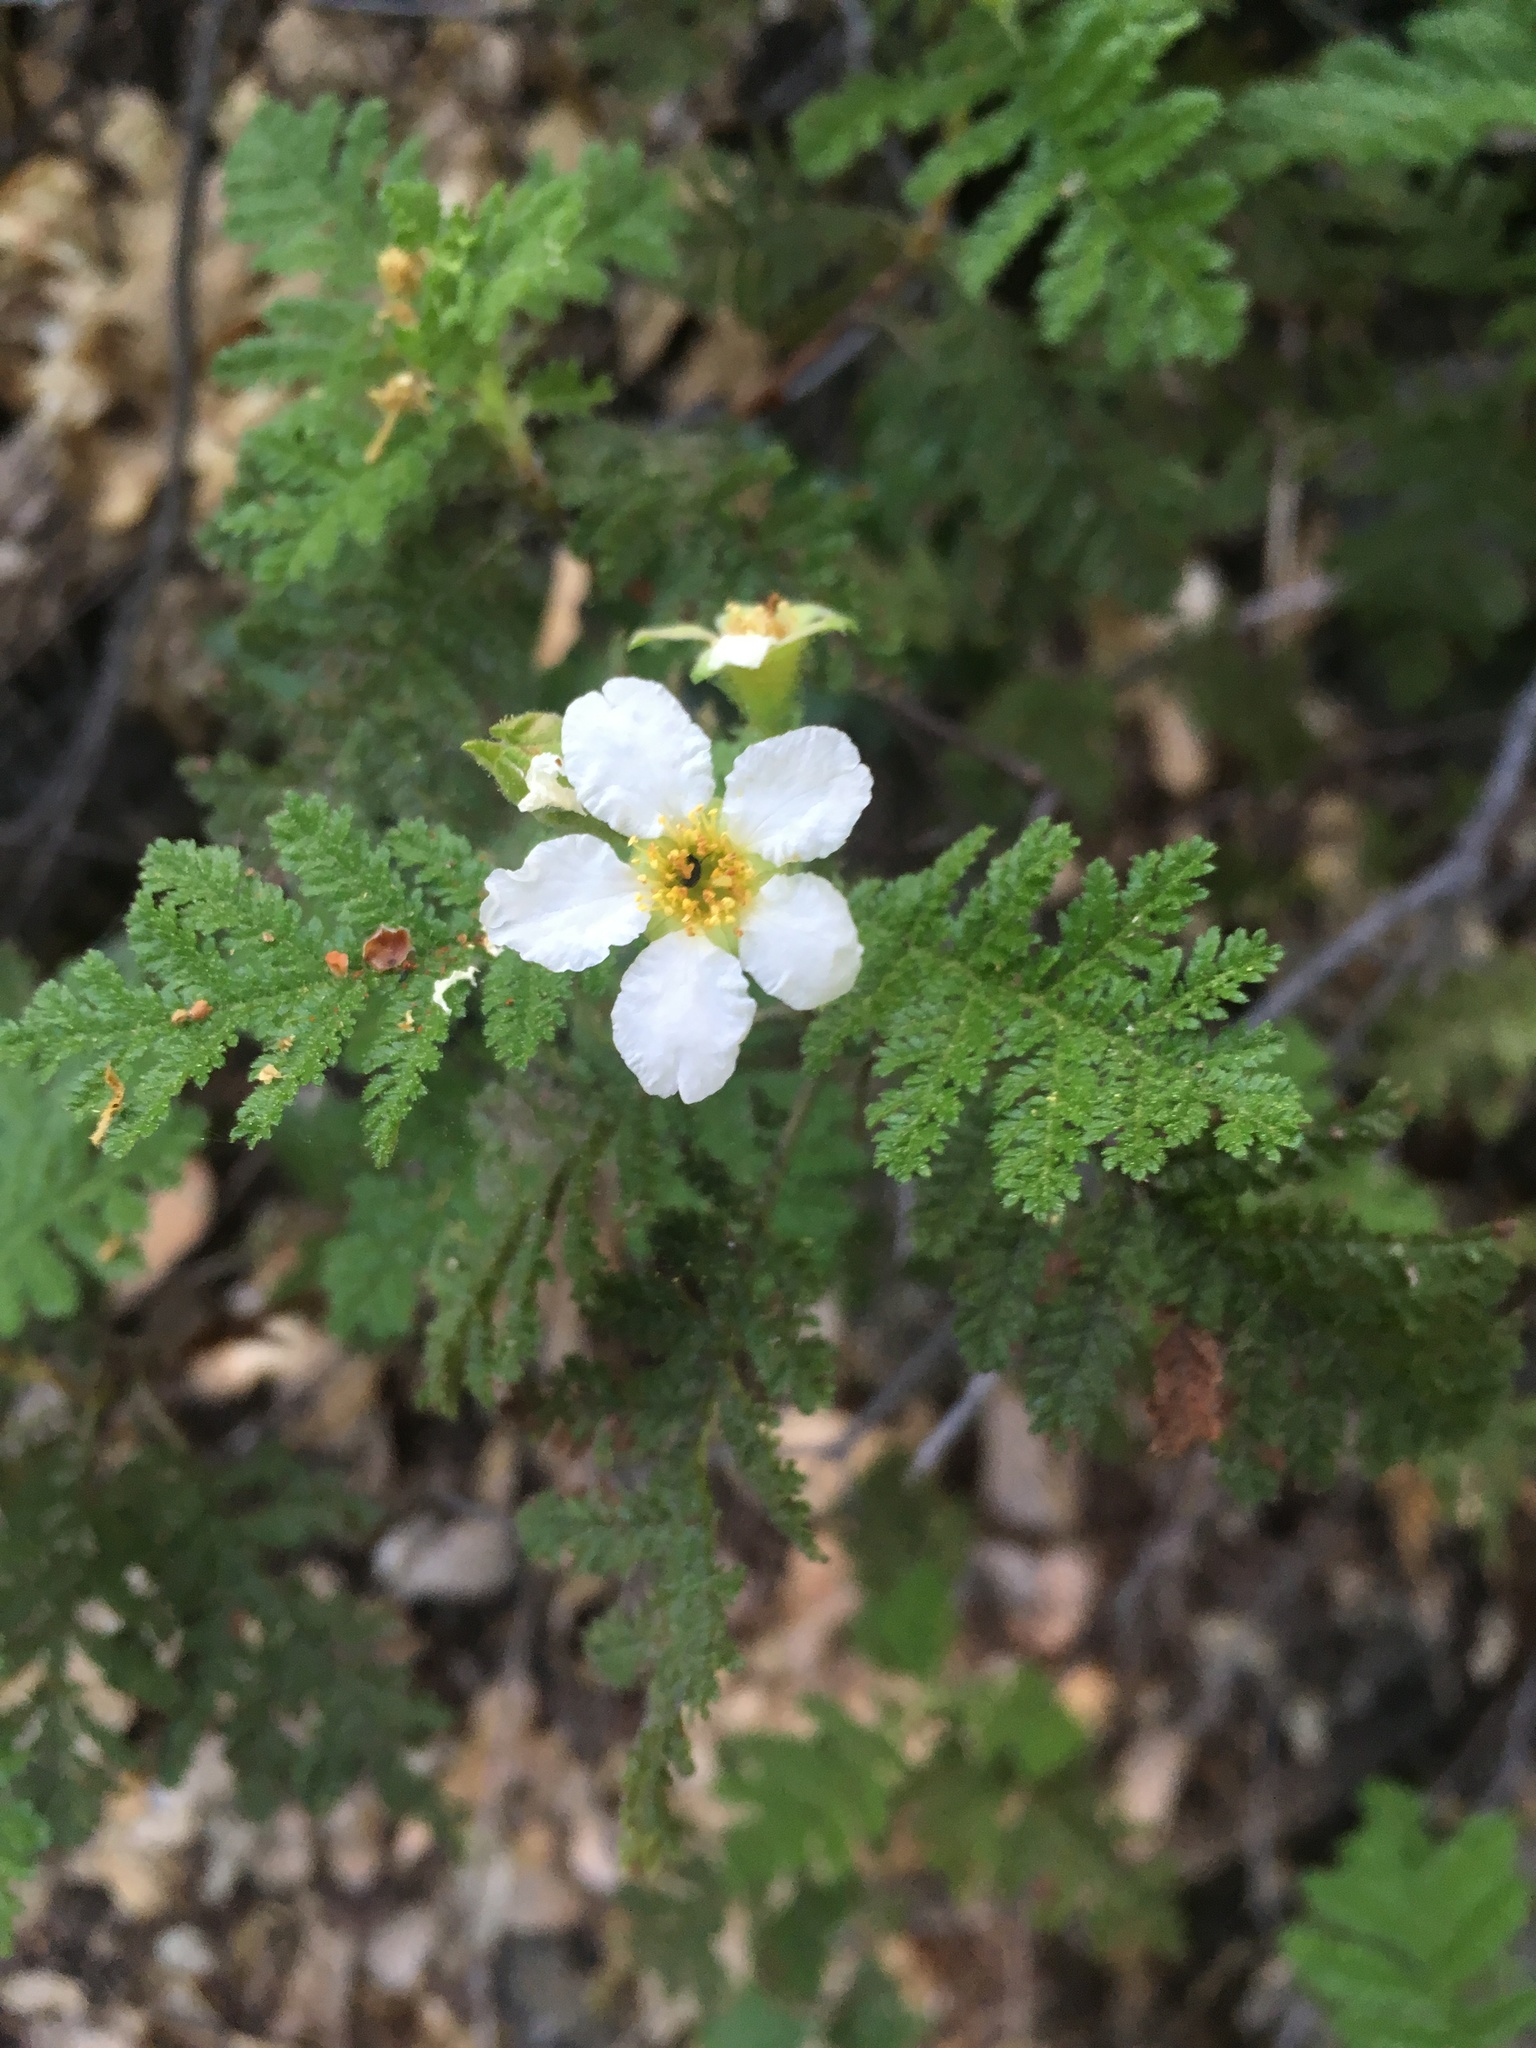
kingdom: Plantae
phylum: Tracheophyta
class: Magnoliopsida
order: Rosales
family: Rosaceae
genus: Chamaebatia
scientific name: Chamaebatia foliolosa
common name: Mountain misery
